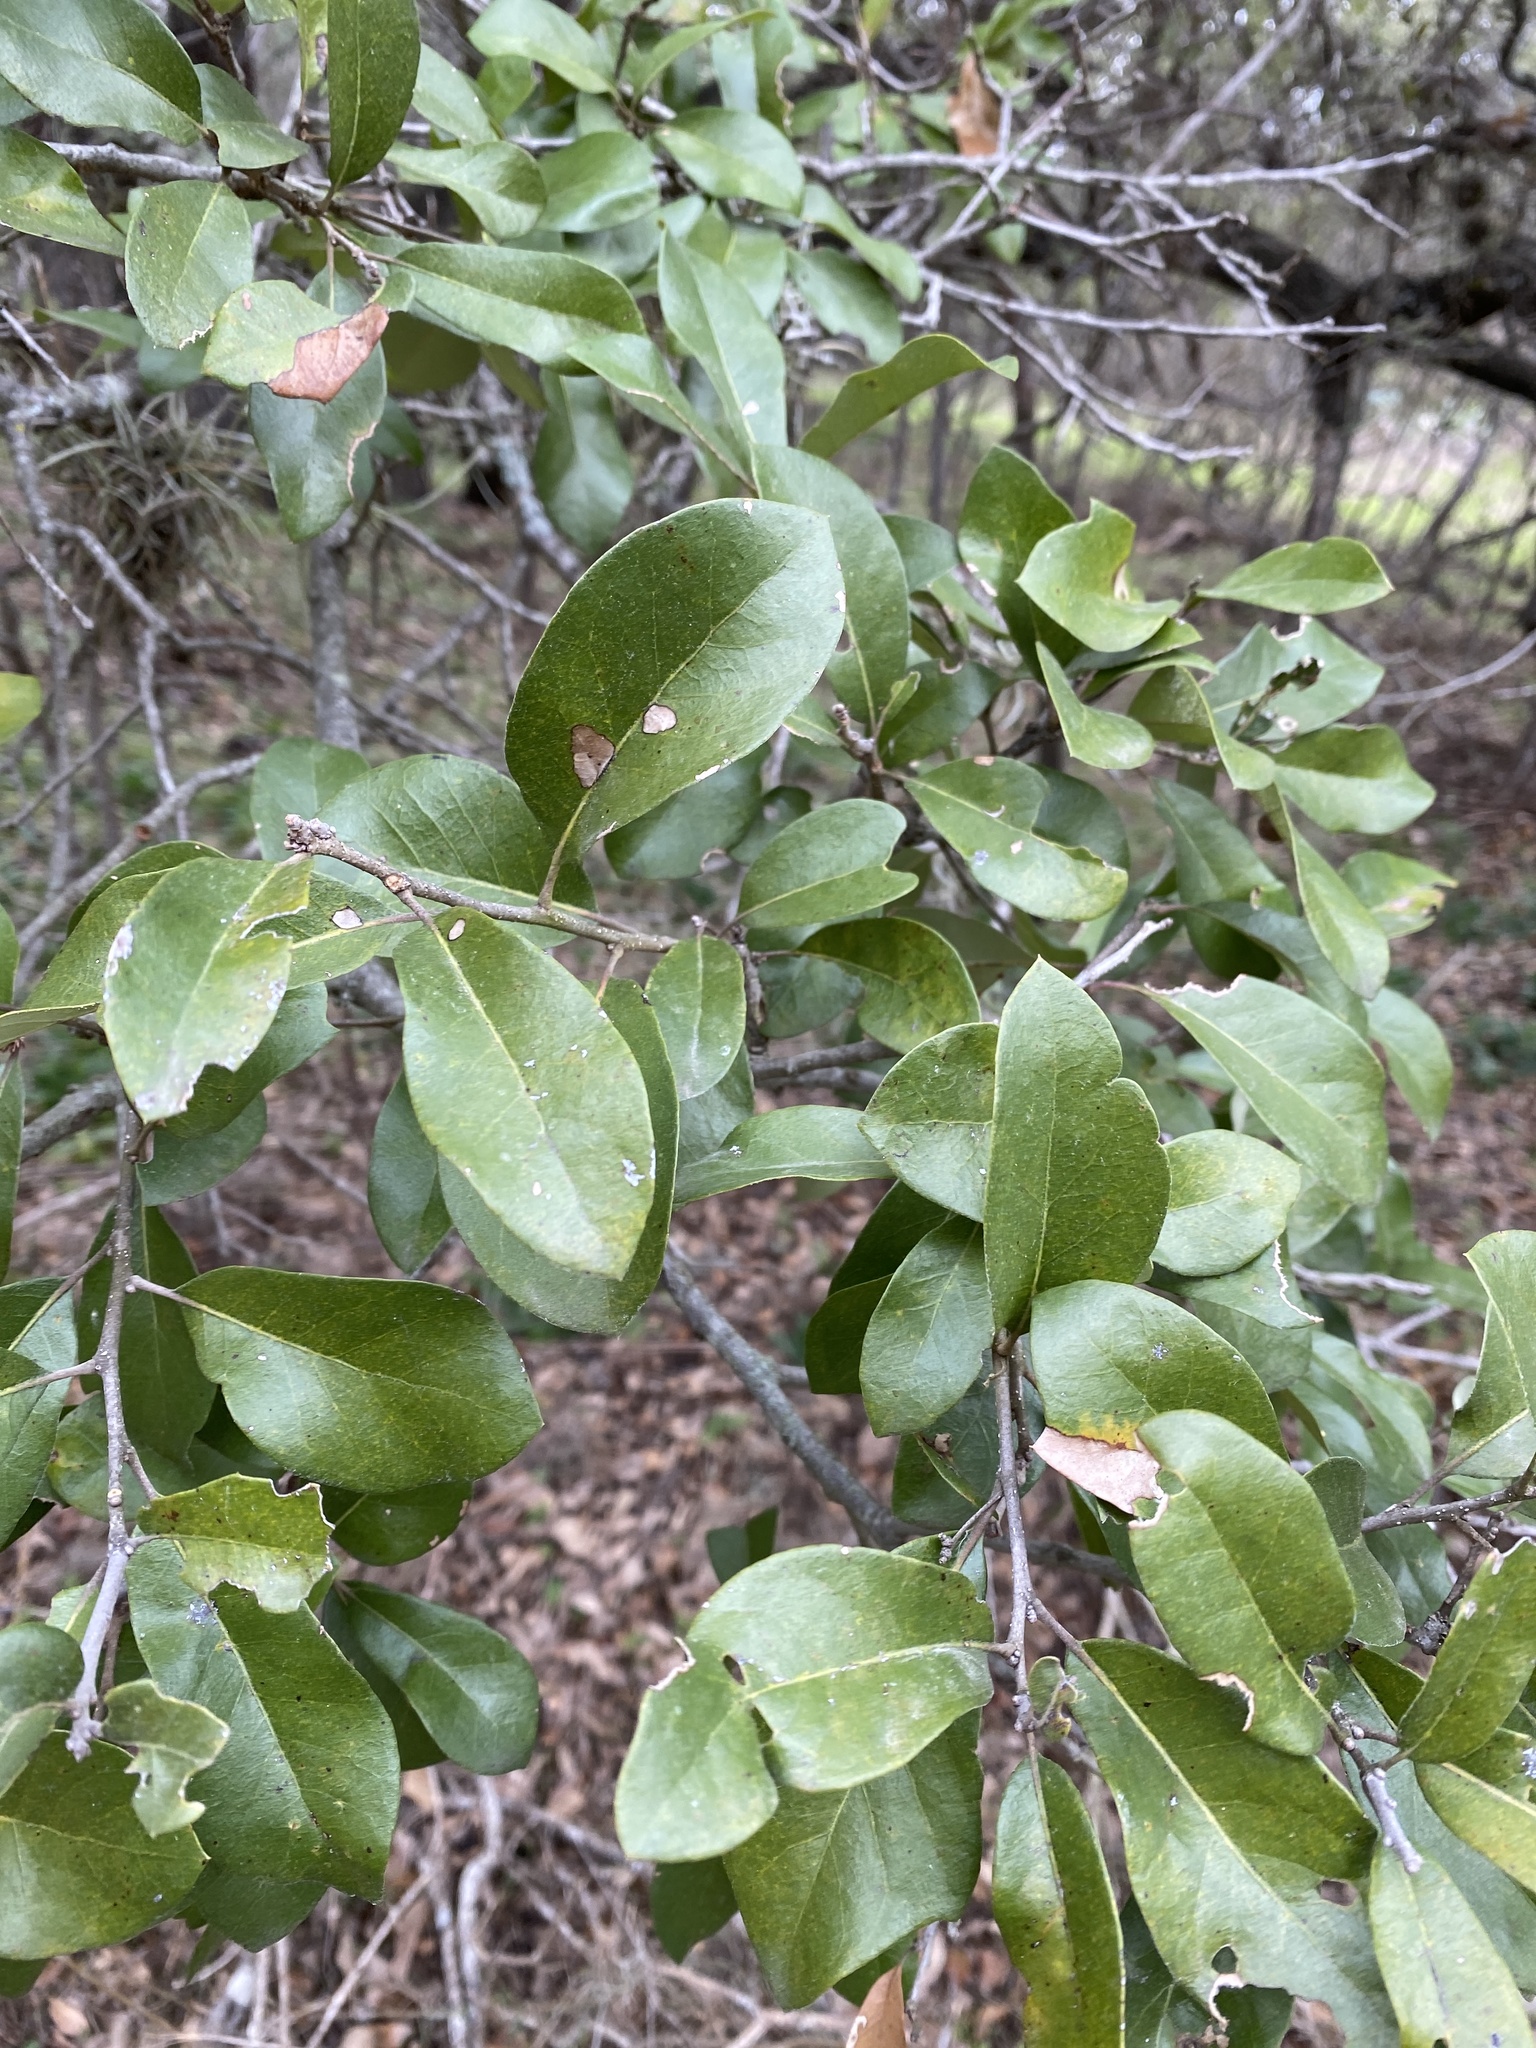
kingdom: Plantae
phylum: Tracheophyta
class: Magnoliopsida
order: Fagales
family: Fagaceae
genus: Quercus
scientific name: Quercus fusiformis
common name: Texas live oak
